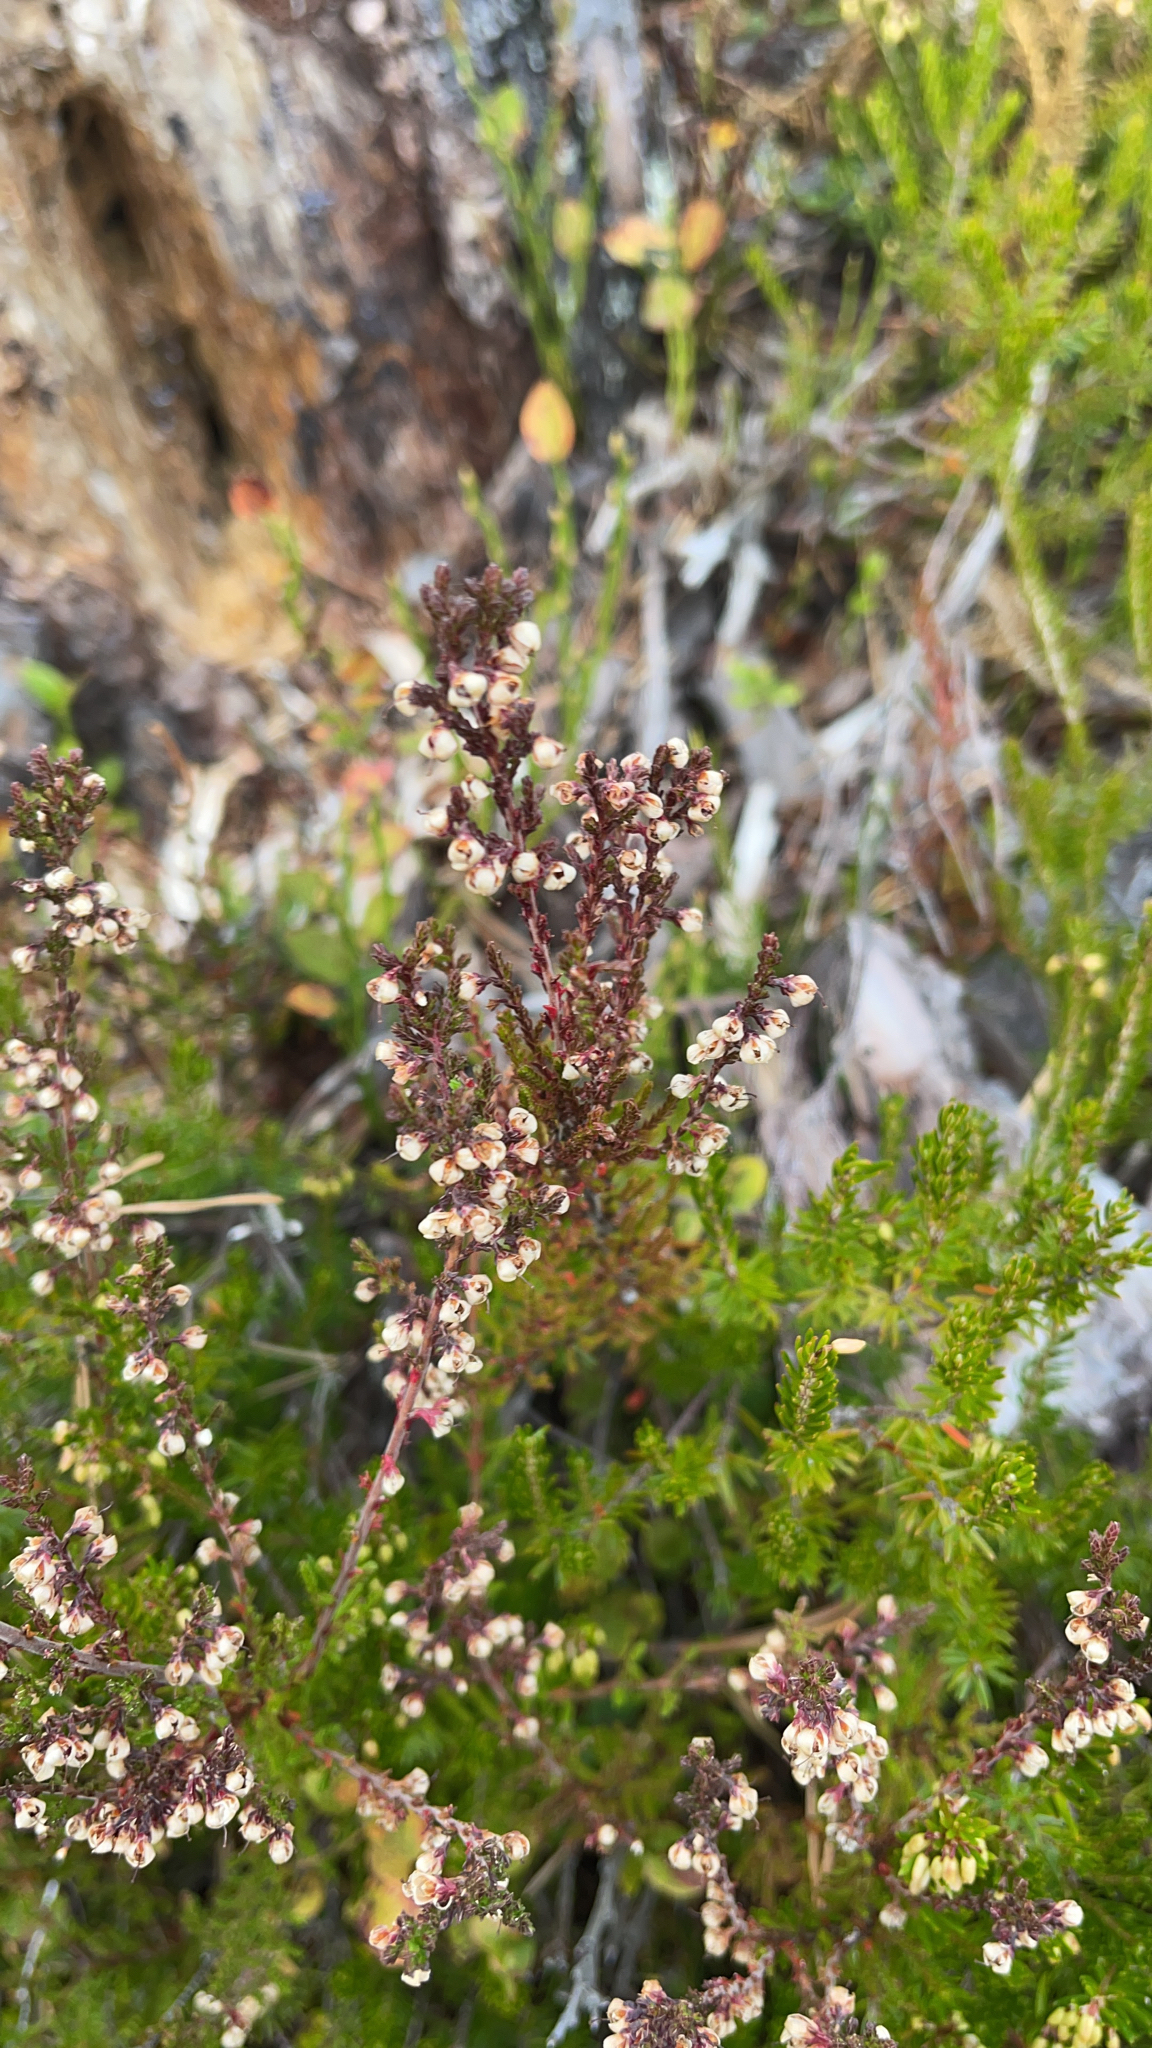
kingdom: Plantae
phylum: Tracheophyta
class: Magnoliopsida
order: Ericales
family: Ericaceae
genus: Calluna
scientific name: Calluna vulgaris
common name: Heather
